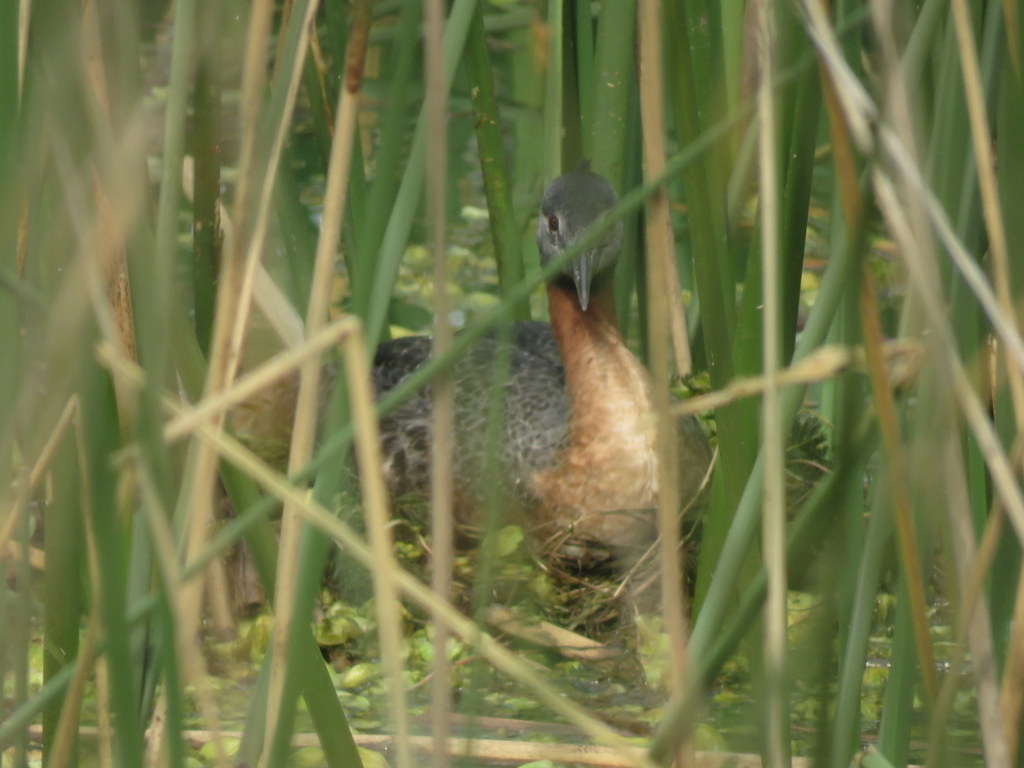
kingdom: Animalia
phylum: Chordata
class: Aves
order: Podicipediformes
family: Podicipedidae
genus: Podiceps
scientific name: Podiceps major
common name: Great grebe
